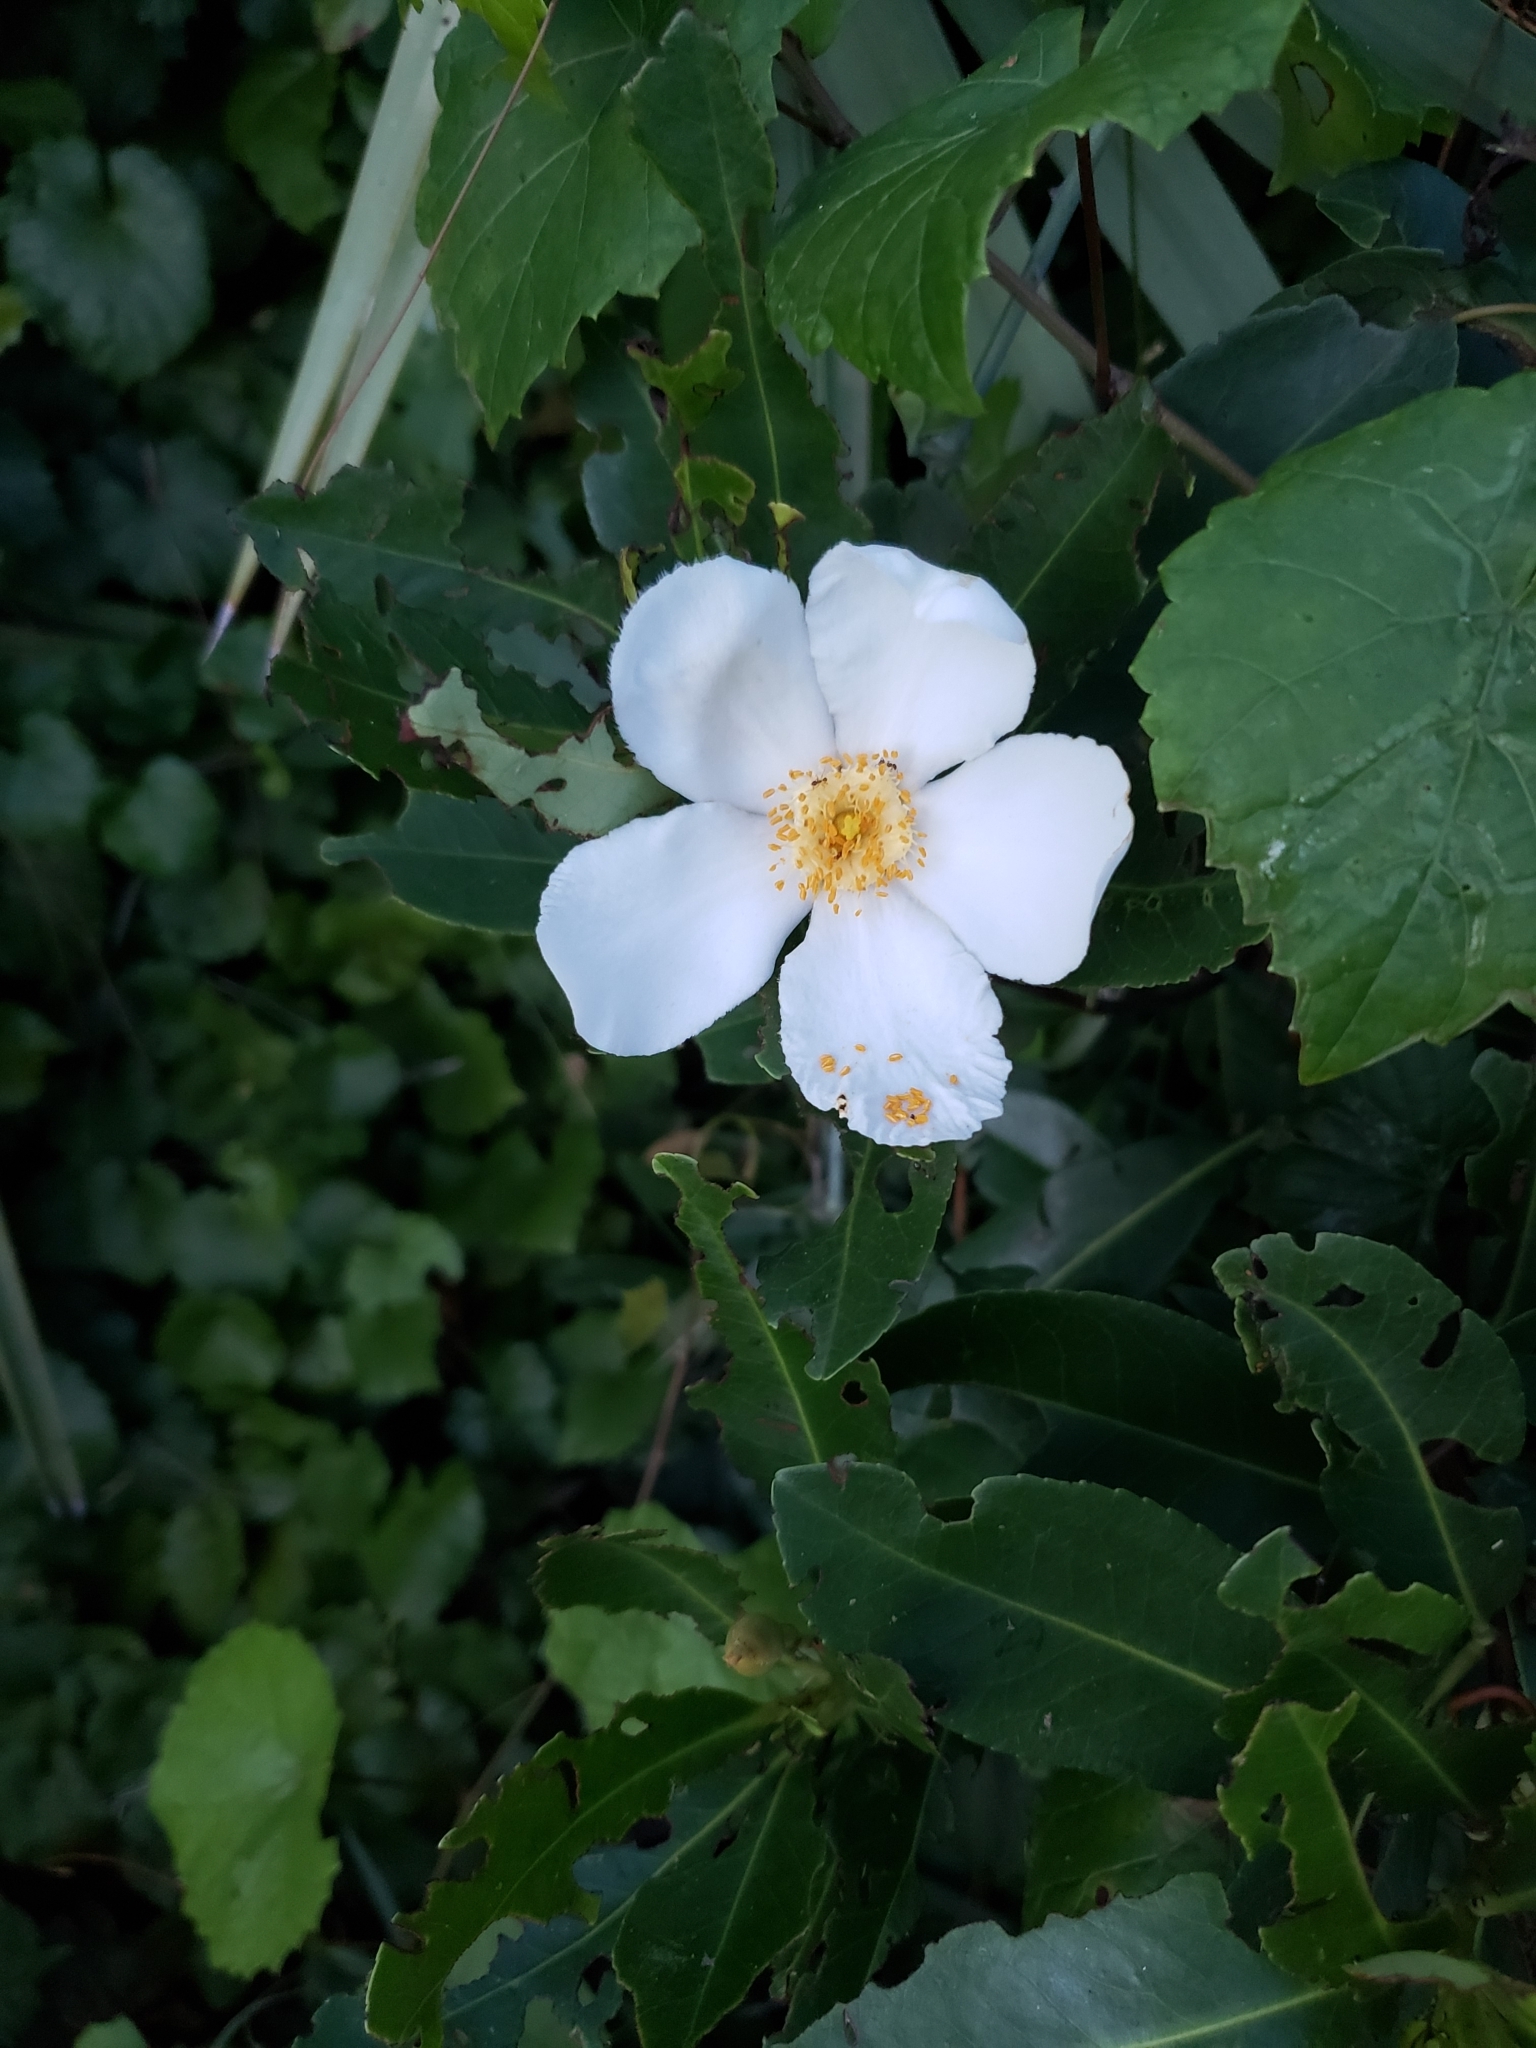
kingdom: Plantae
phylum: Tracheophyta
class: Magnoliopsida
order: Ericales
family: Theaceae
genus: Gordonia
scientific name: Gordonia lasianthus
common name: Loblolly bay
